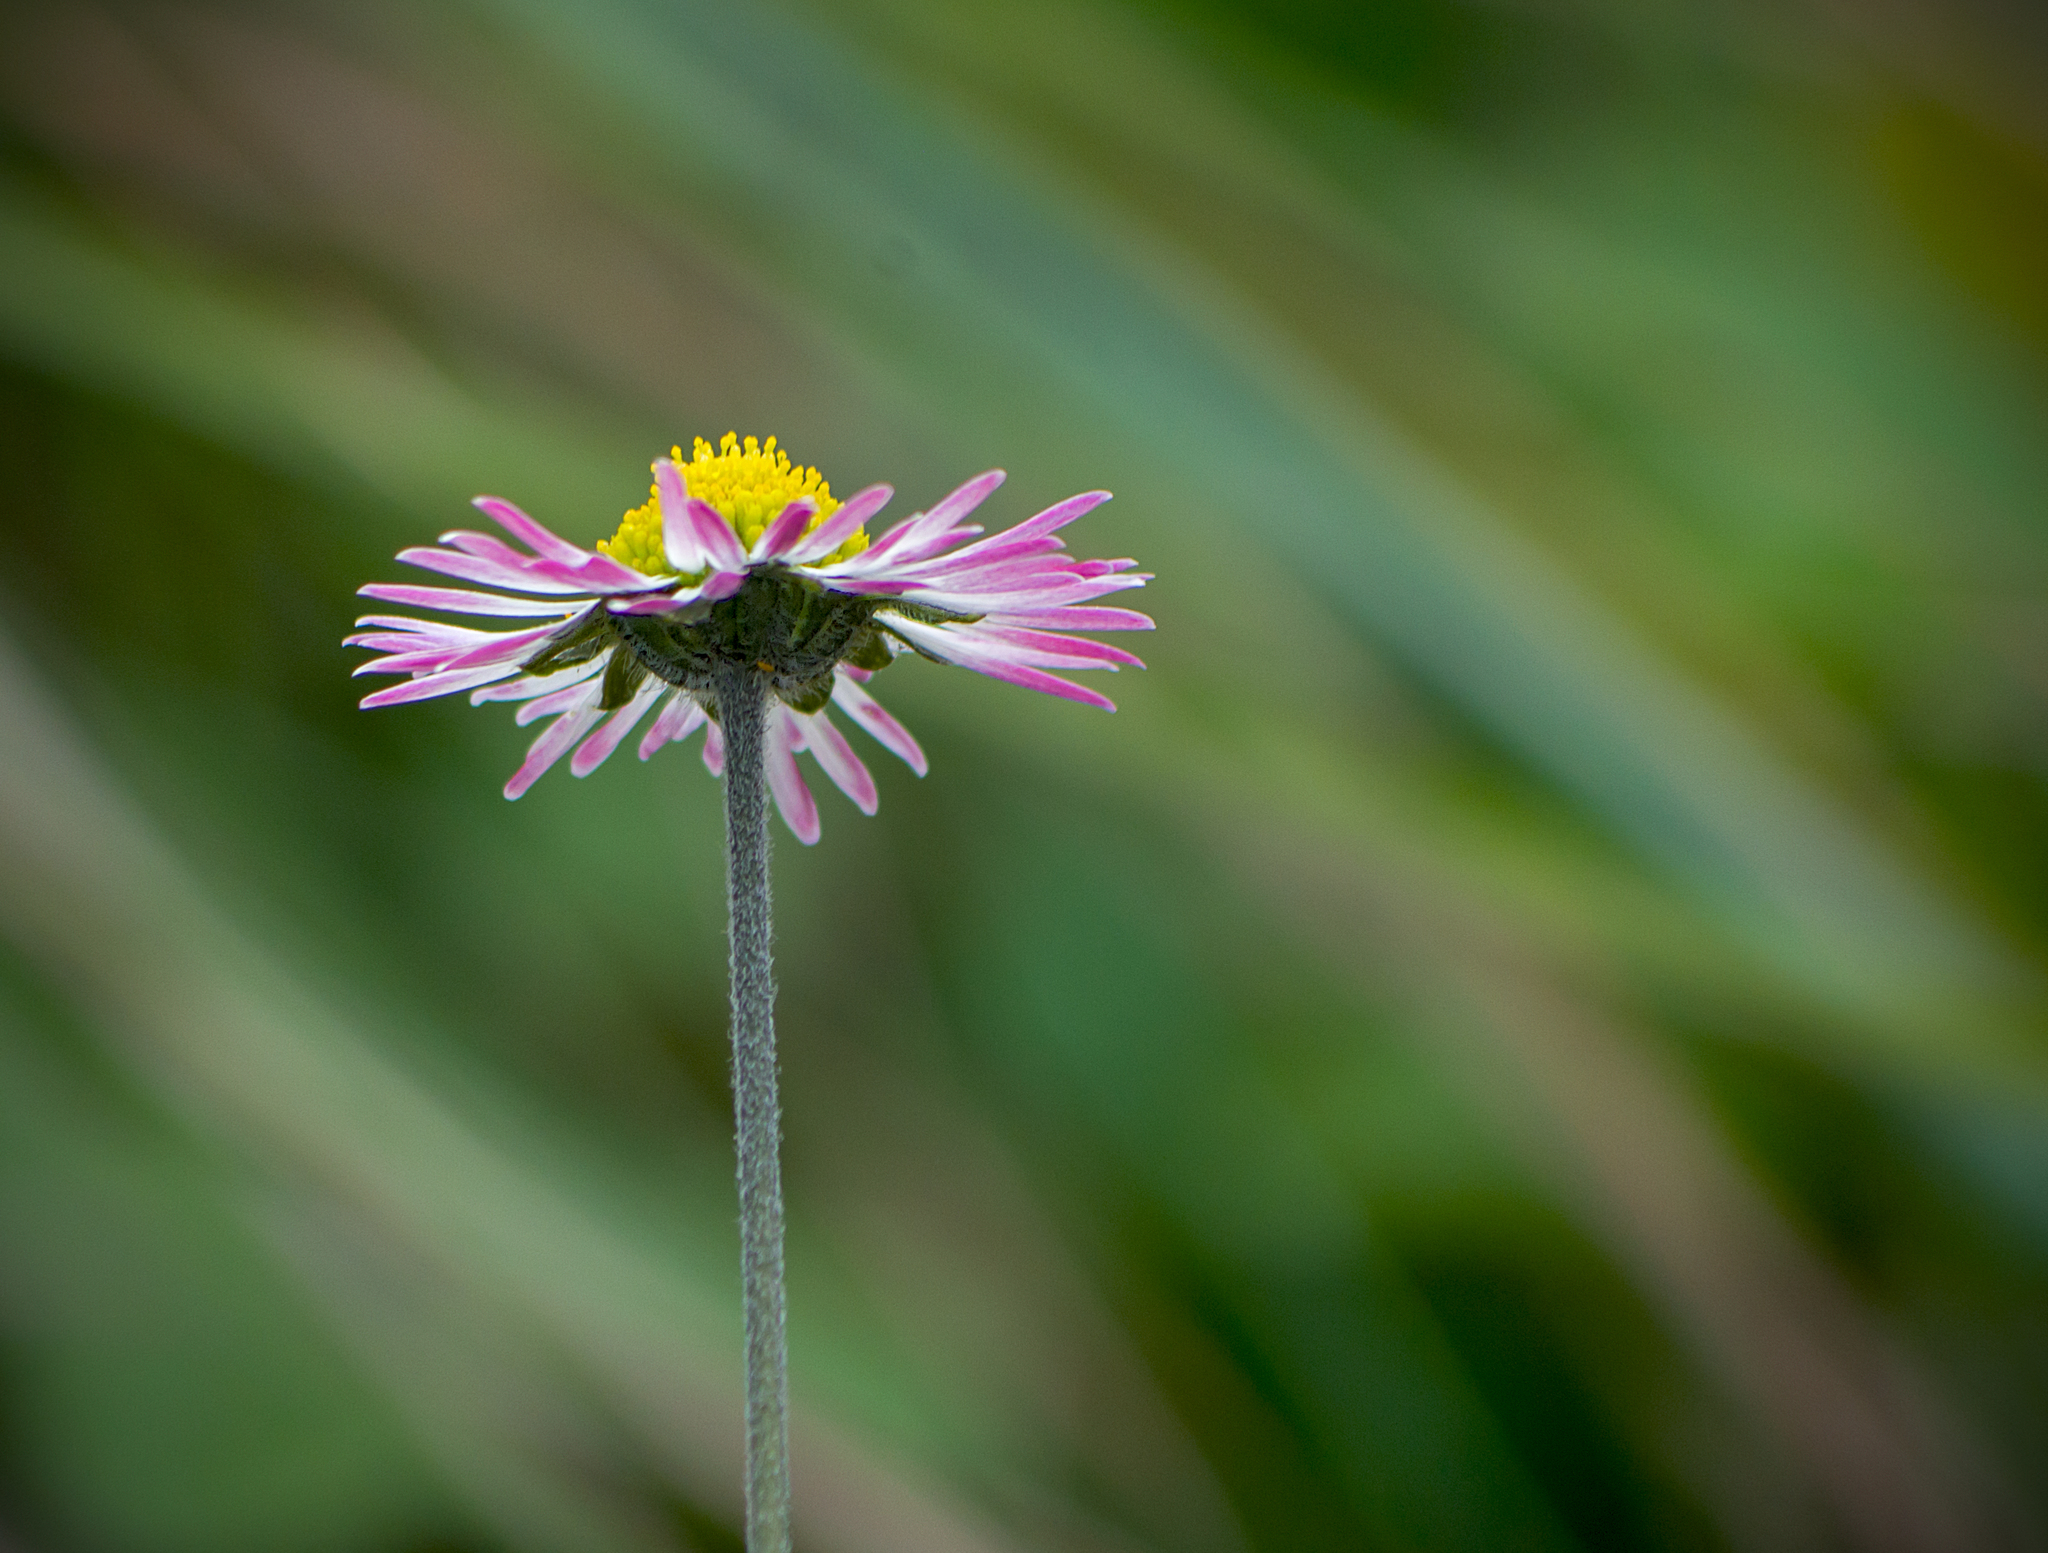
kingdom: Plantae
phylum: Tracheophyta
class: Magnoliopsida
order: Asterales
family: Asteraceae
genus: Bellis
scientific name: Bellis sylvestris
